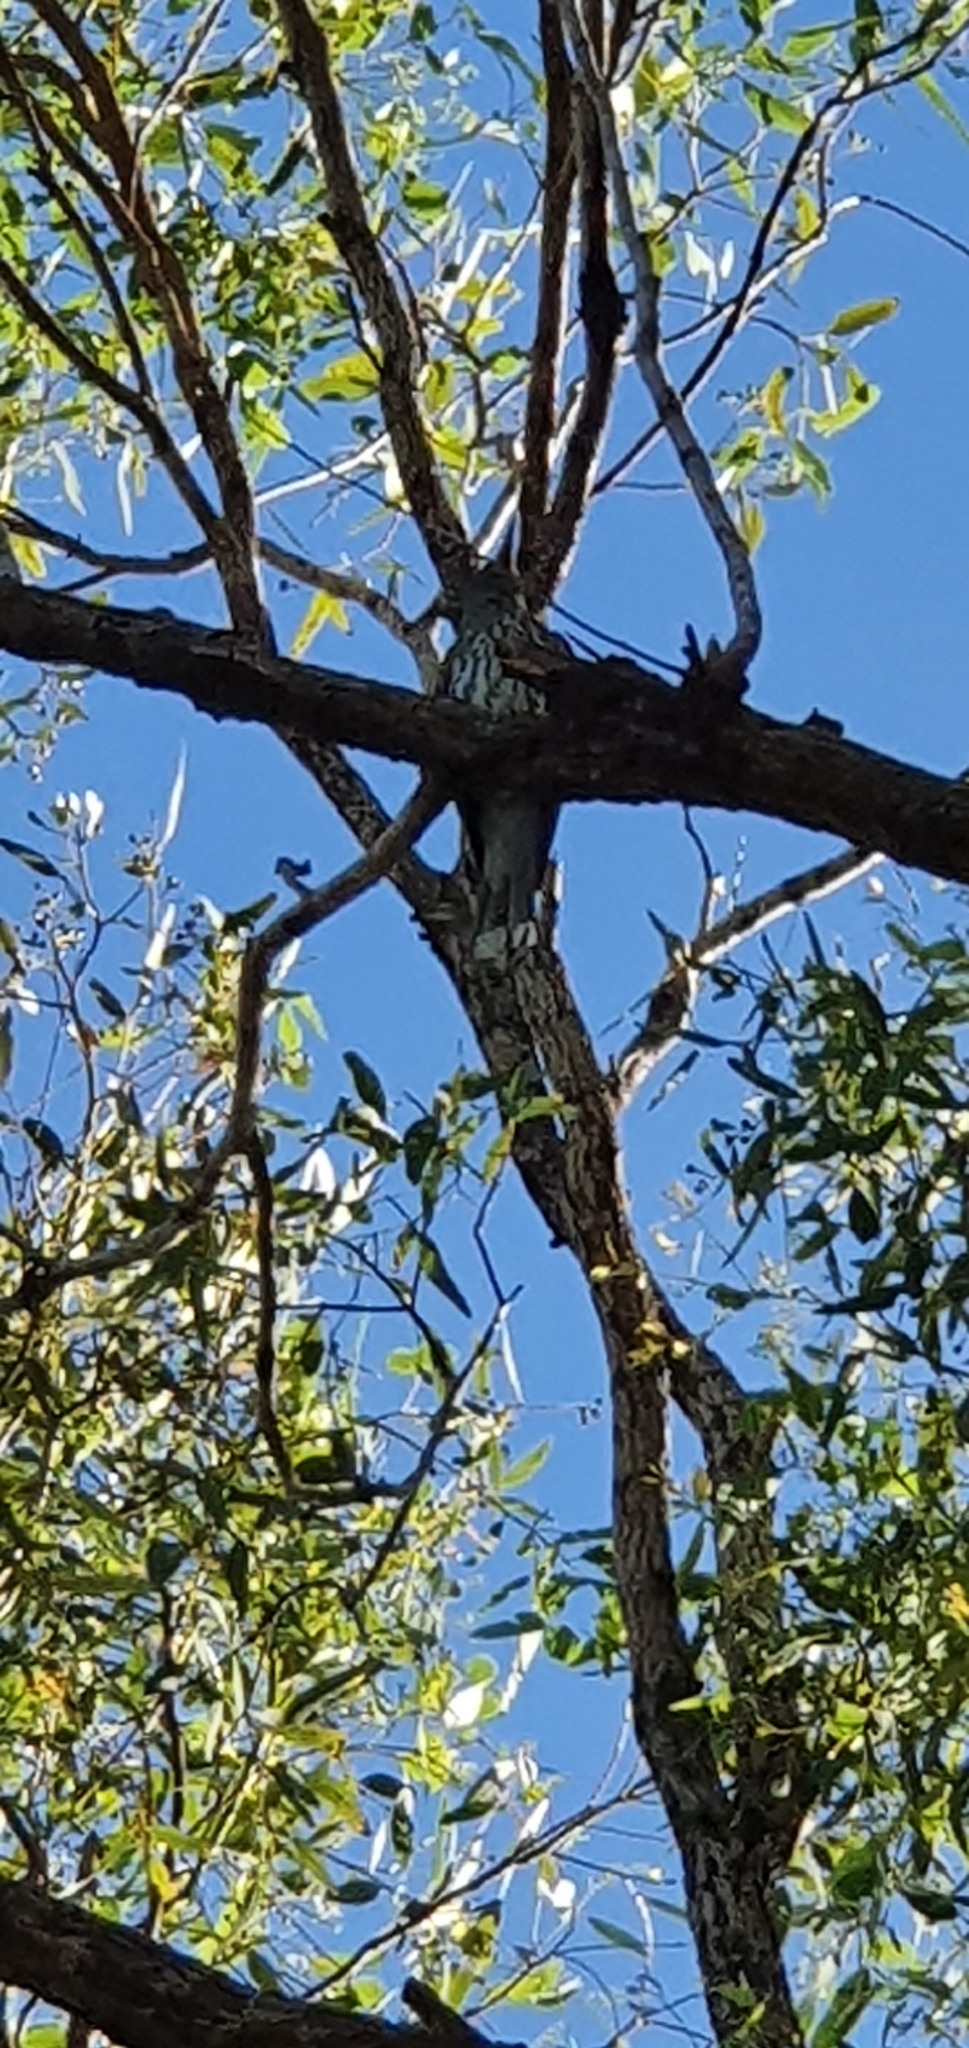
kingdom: Animalia
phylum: Chordata
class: Aves
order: Passeriformes
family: Oriolidae
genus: Oriolus
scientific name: Oriolus sagittatus
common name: Olive-backed oriole
